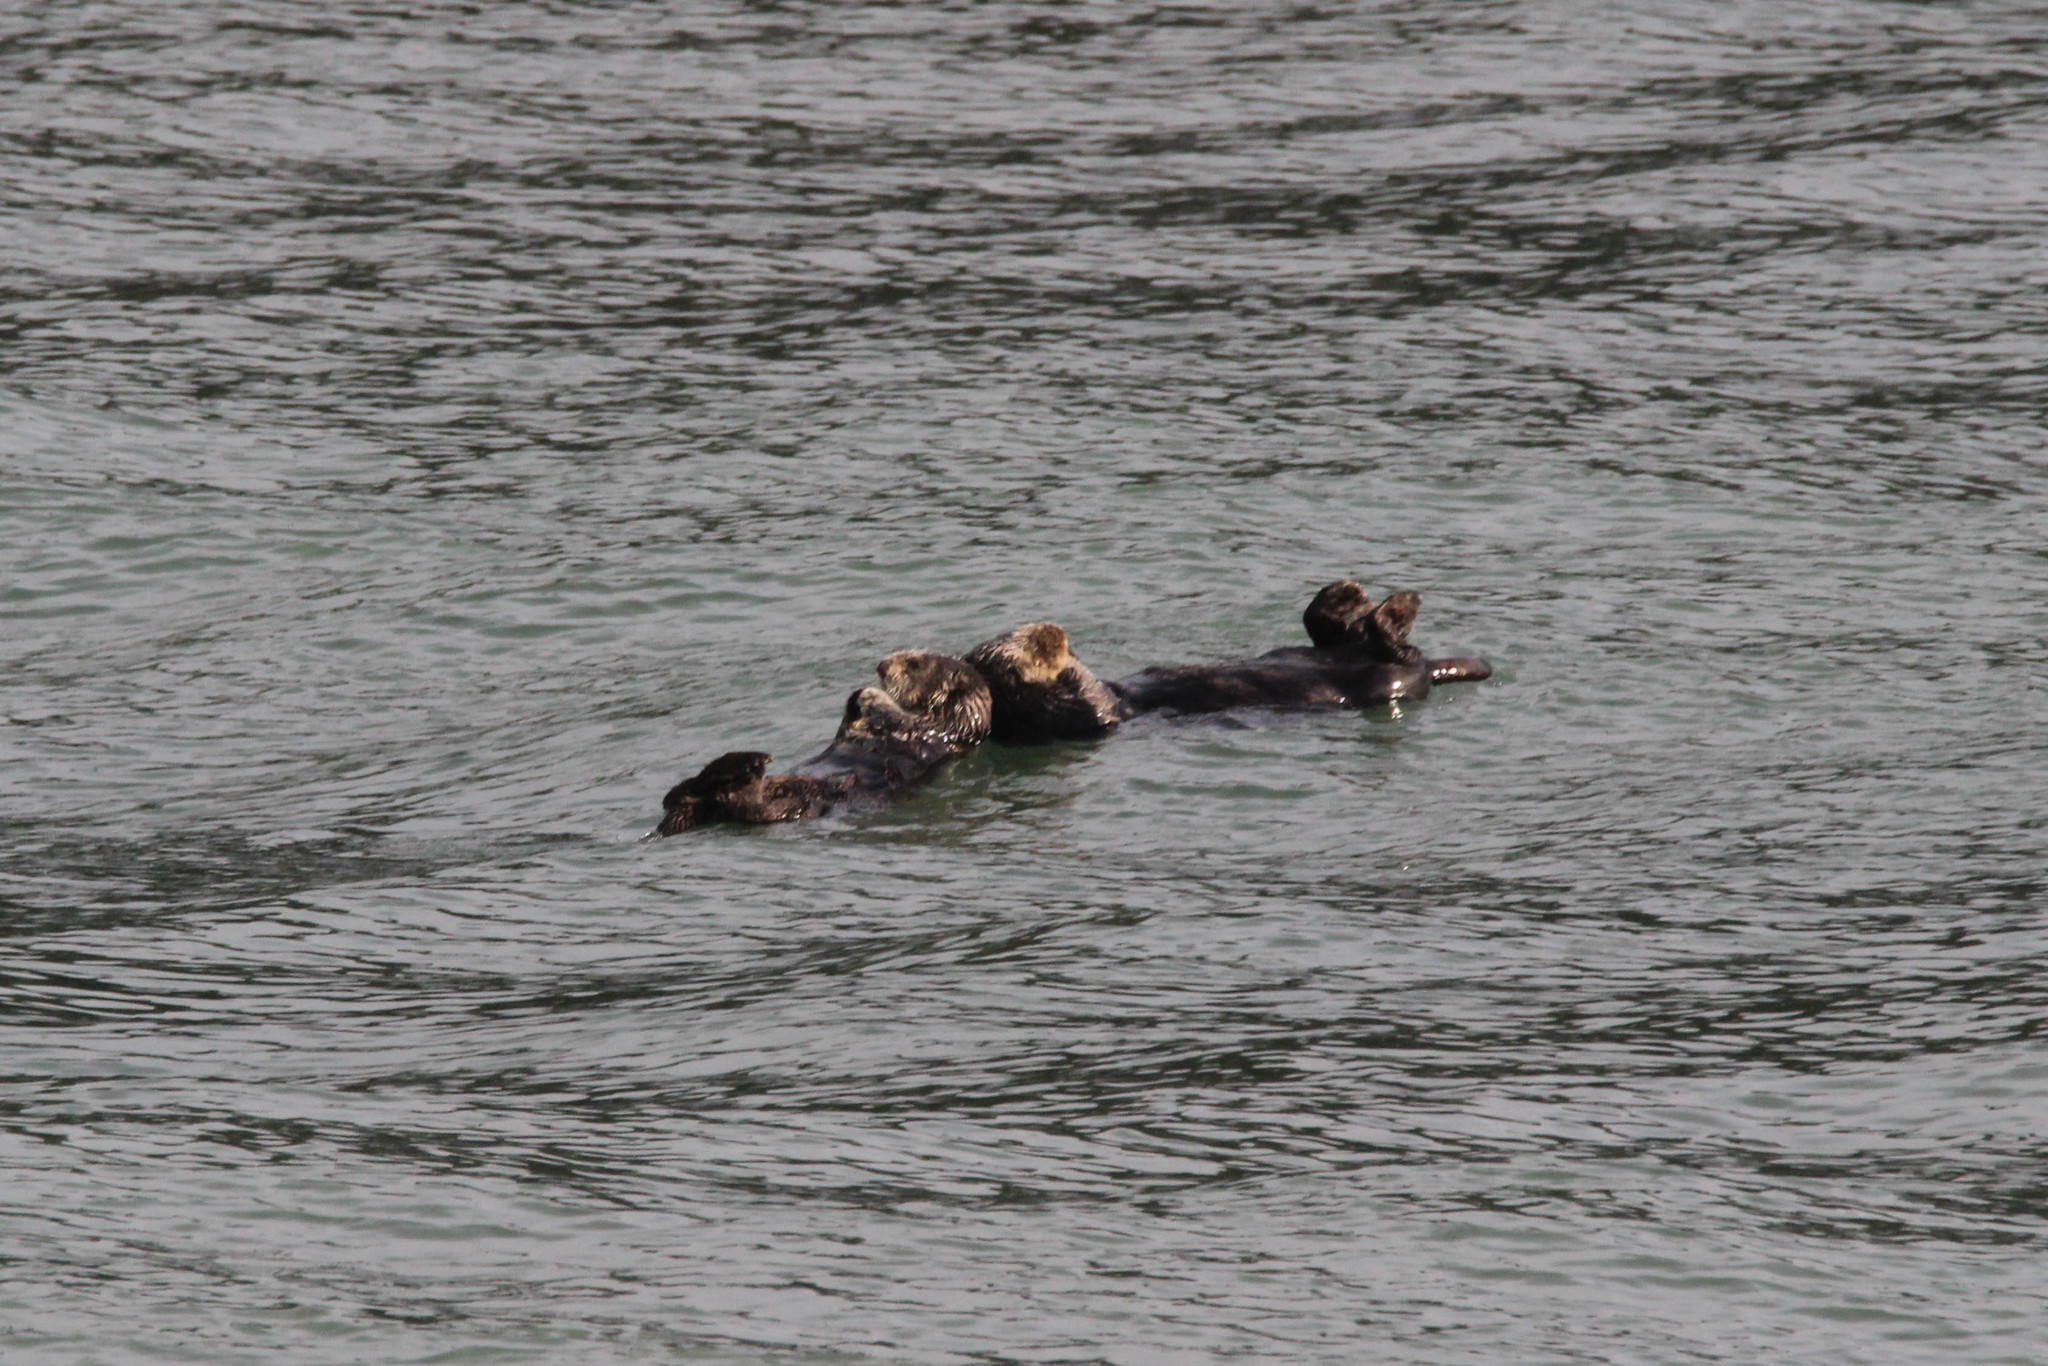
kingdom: Animalia
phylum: Chordata
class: Mammalia
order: Carnivora
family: Mustelidae
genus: Enhydra
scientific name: Enhydra lutris
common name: Sea otter
